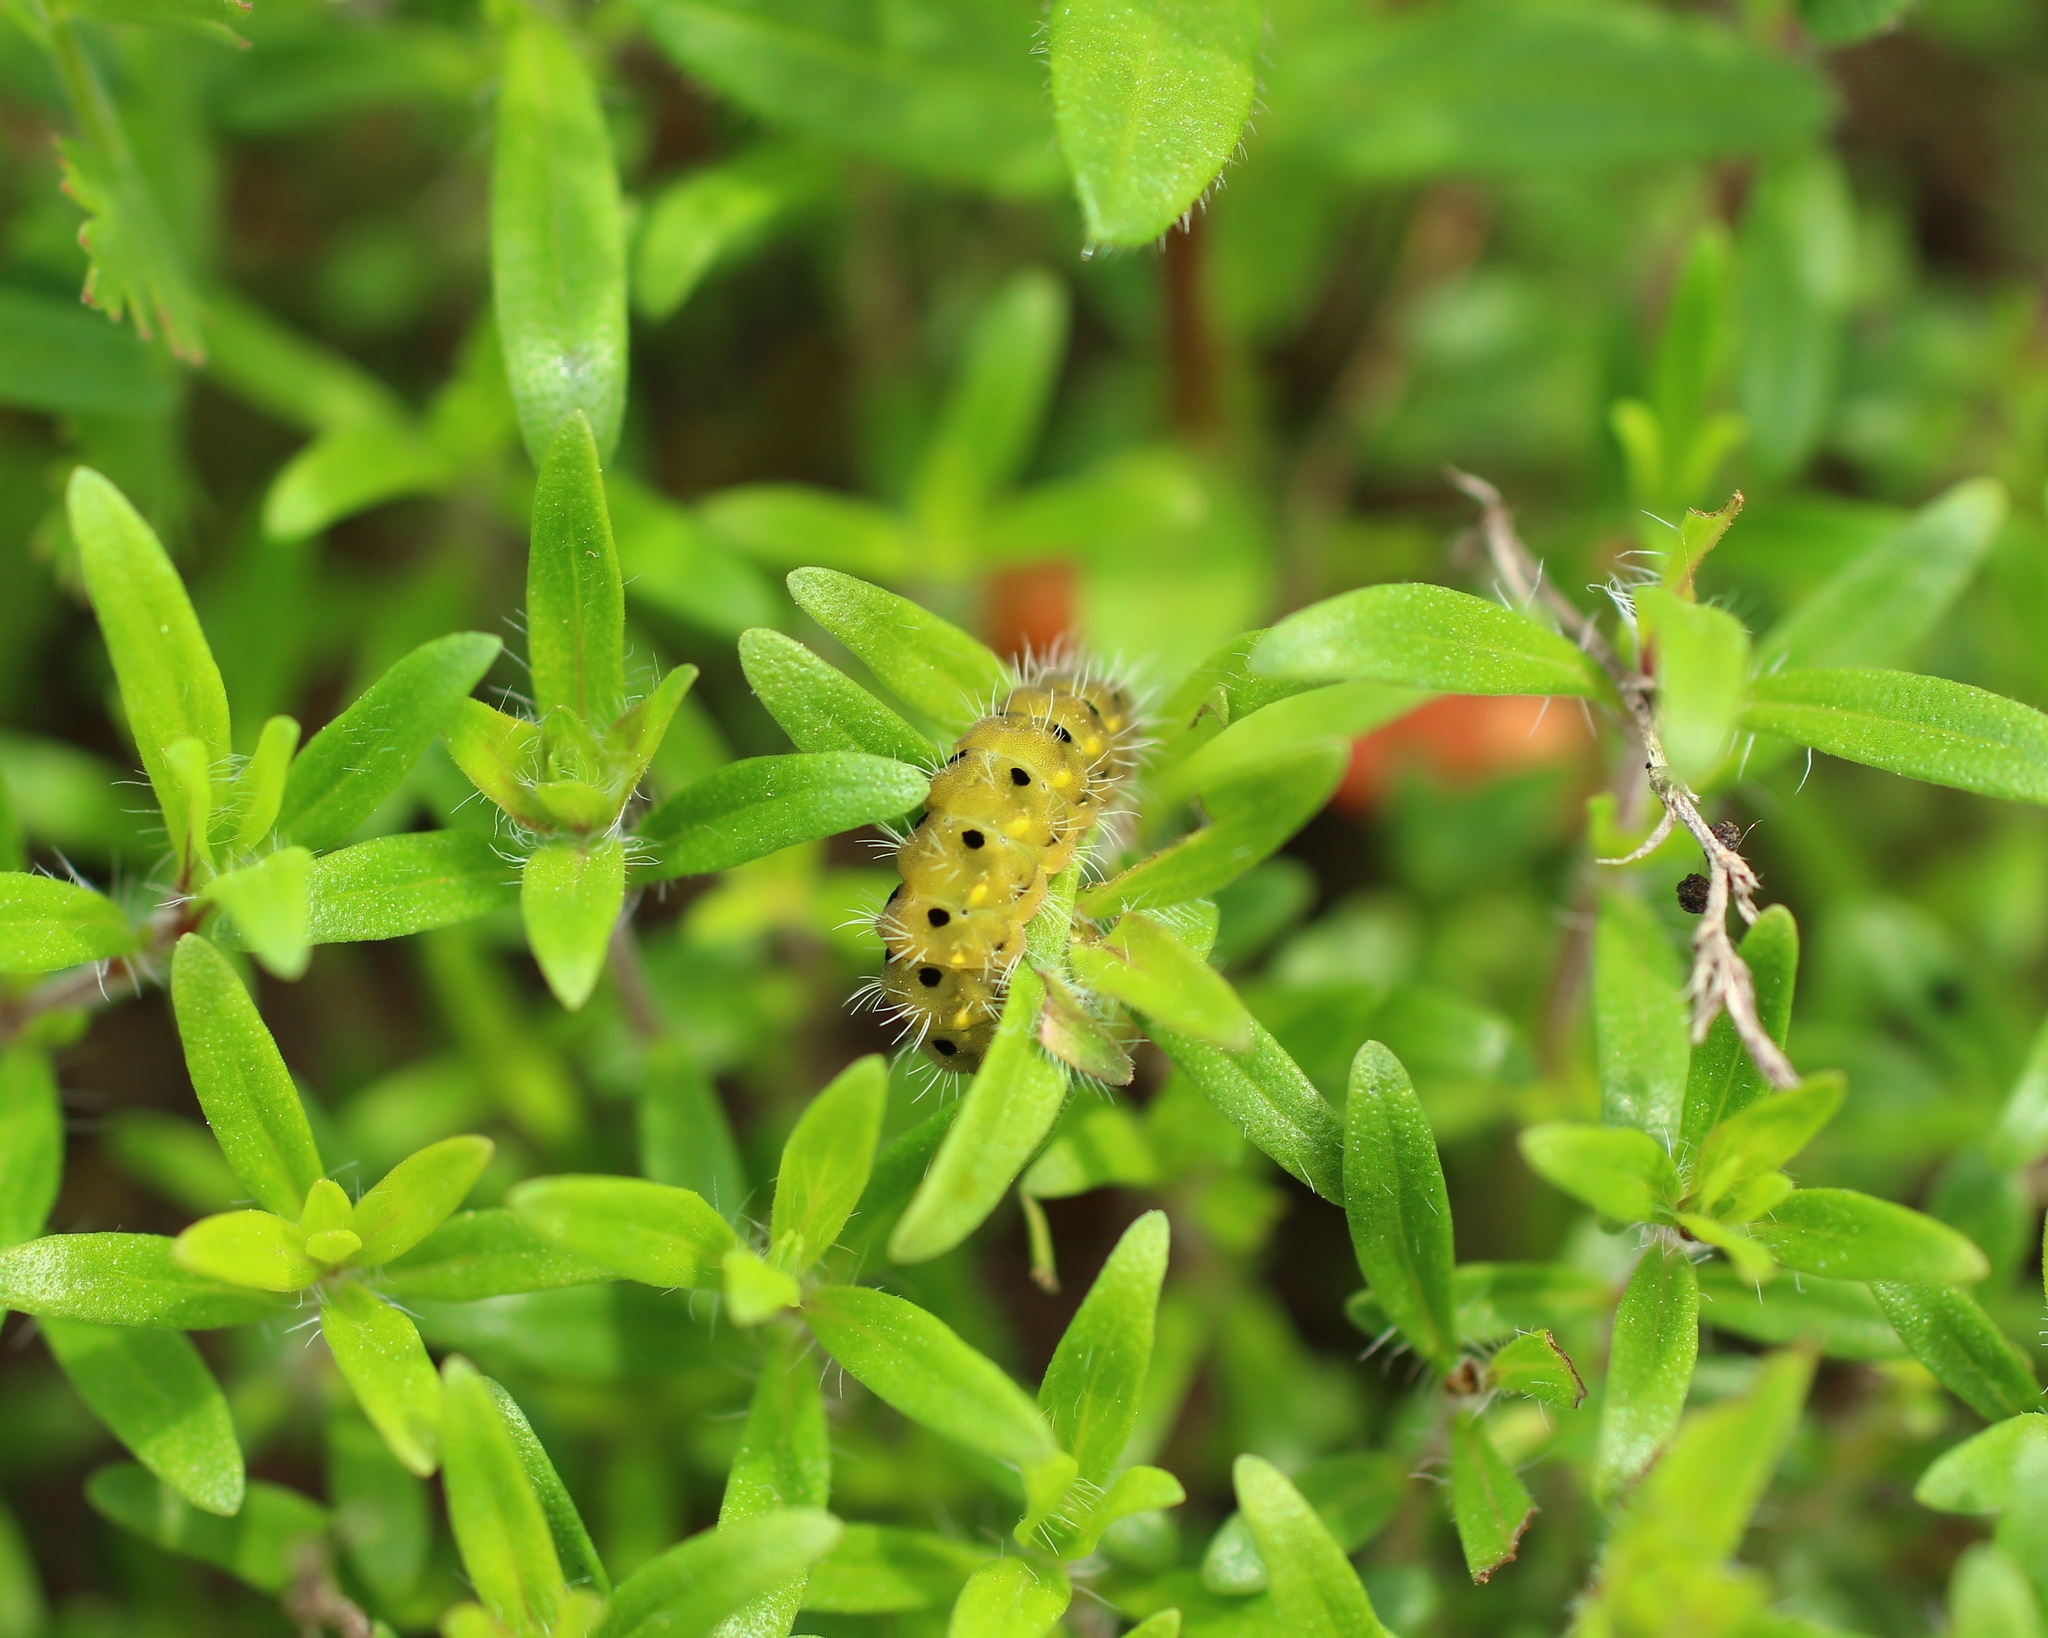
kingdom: Animalia
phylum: Arthropoda
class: Insecta
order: Lepidoptera
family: Zygaenidae
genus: Zygaena
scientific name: Zygaena purpuralis
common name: Transparent burnet
